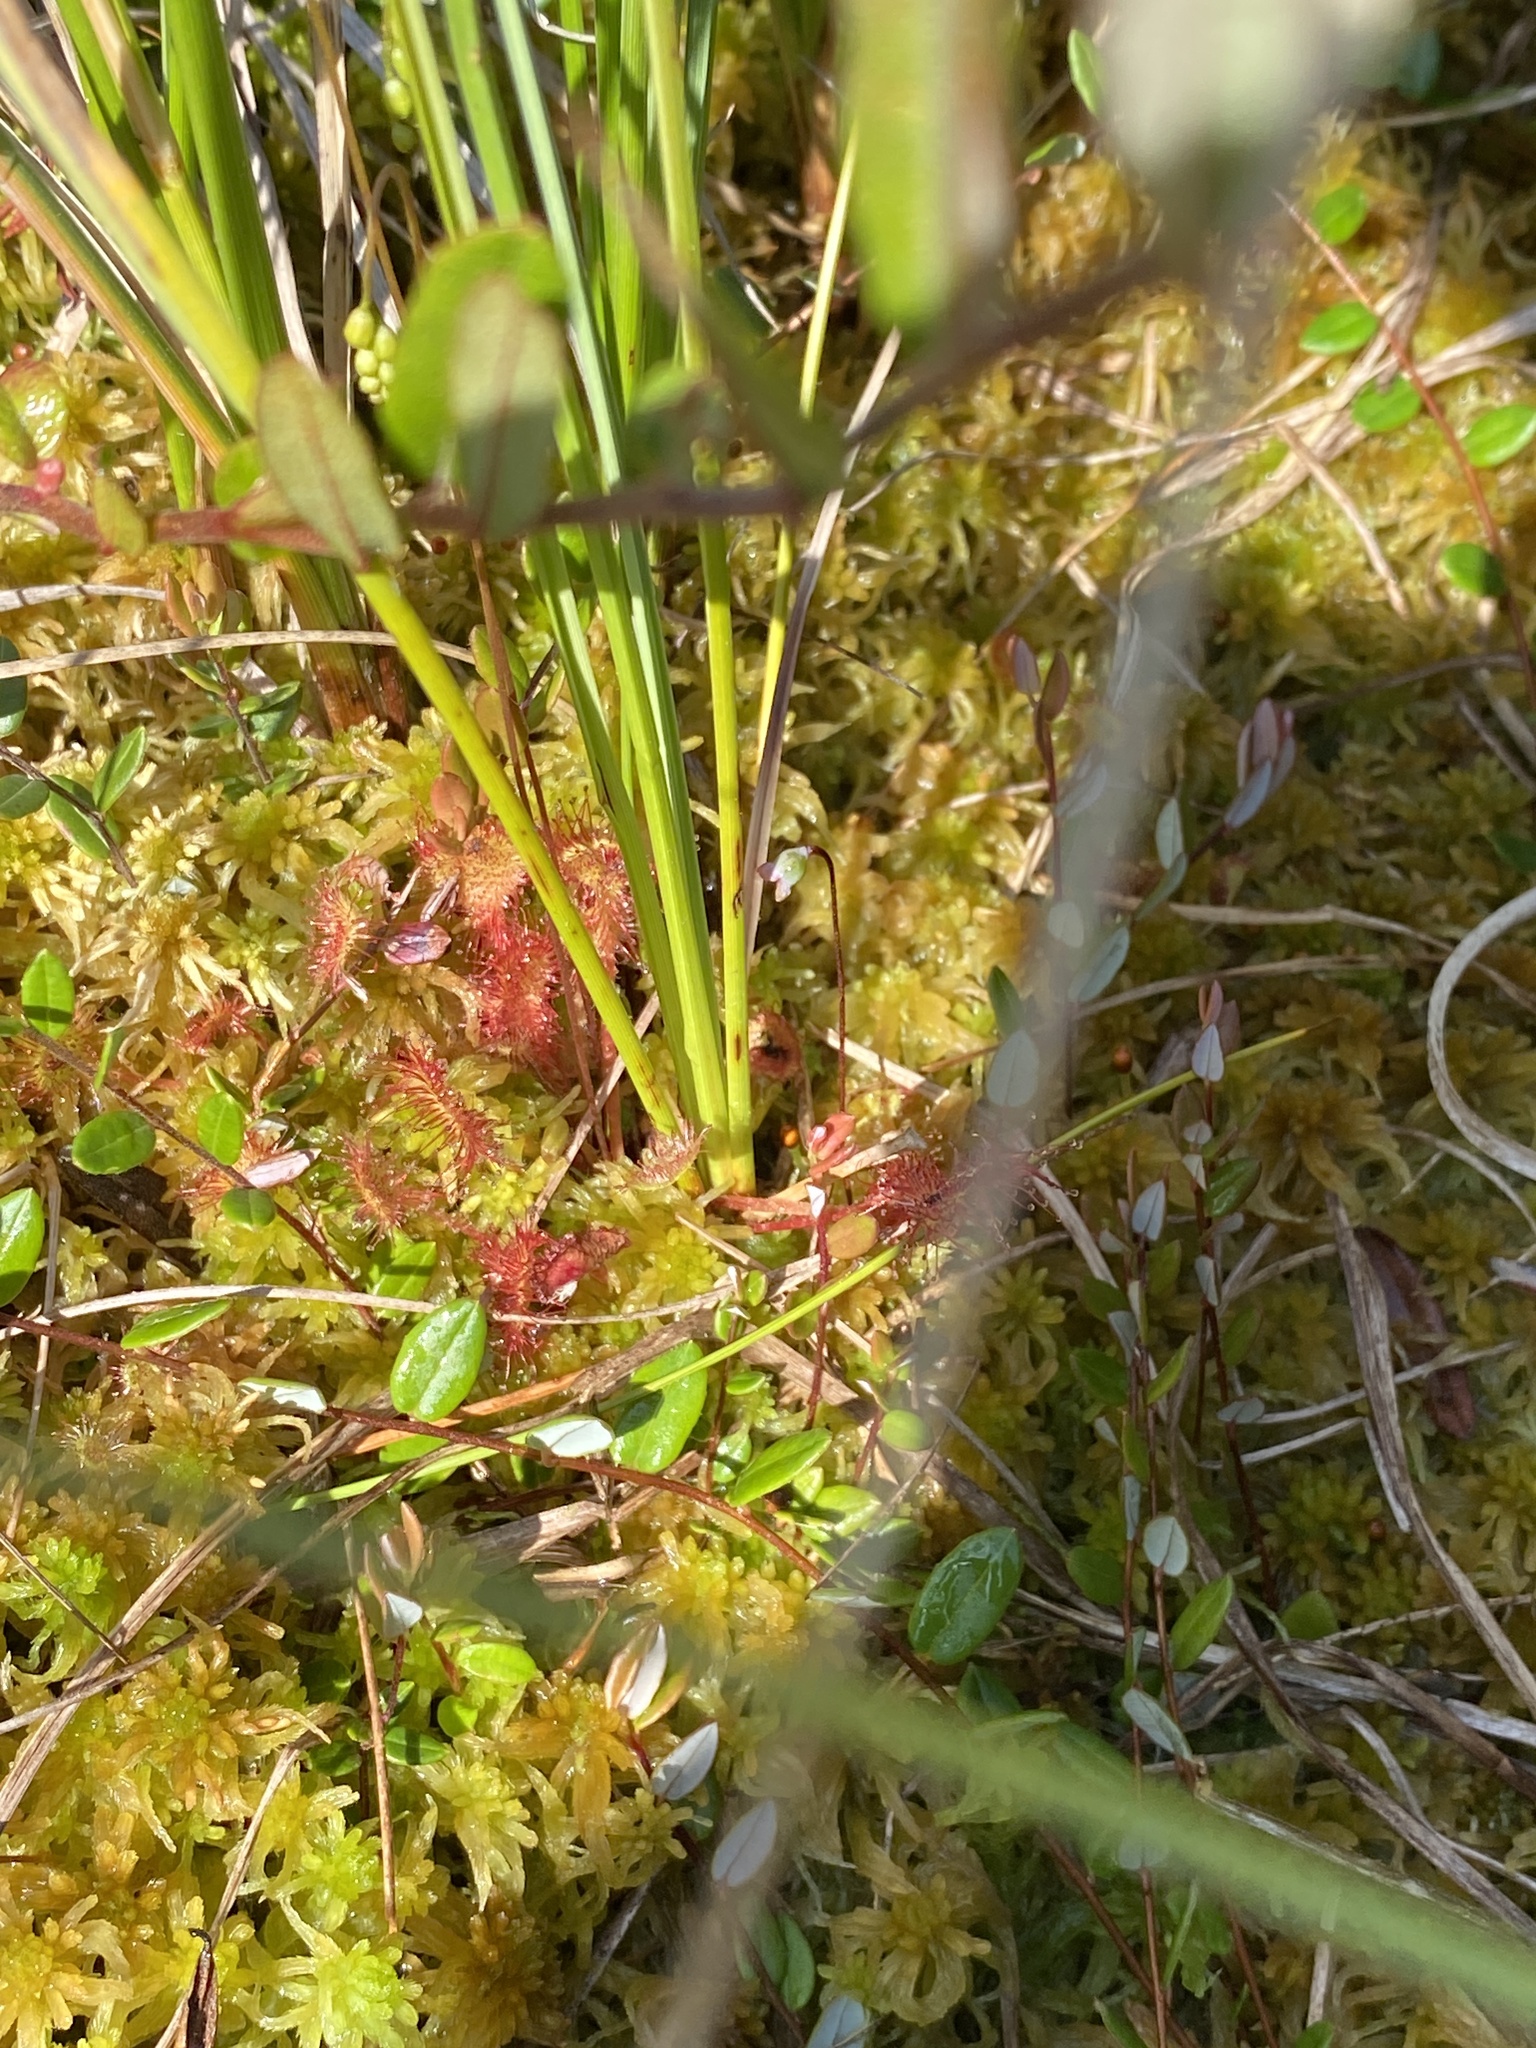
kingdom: Plantae
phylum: Tracheophyta
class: Magnoliopsida
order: Caryophyllales
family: Droseraceae
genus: Drosera
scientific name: Drosera rotundifolia
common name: Round-leaved sundew
